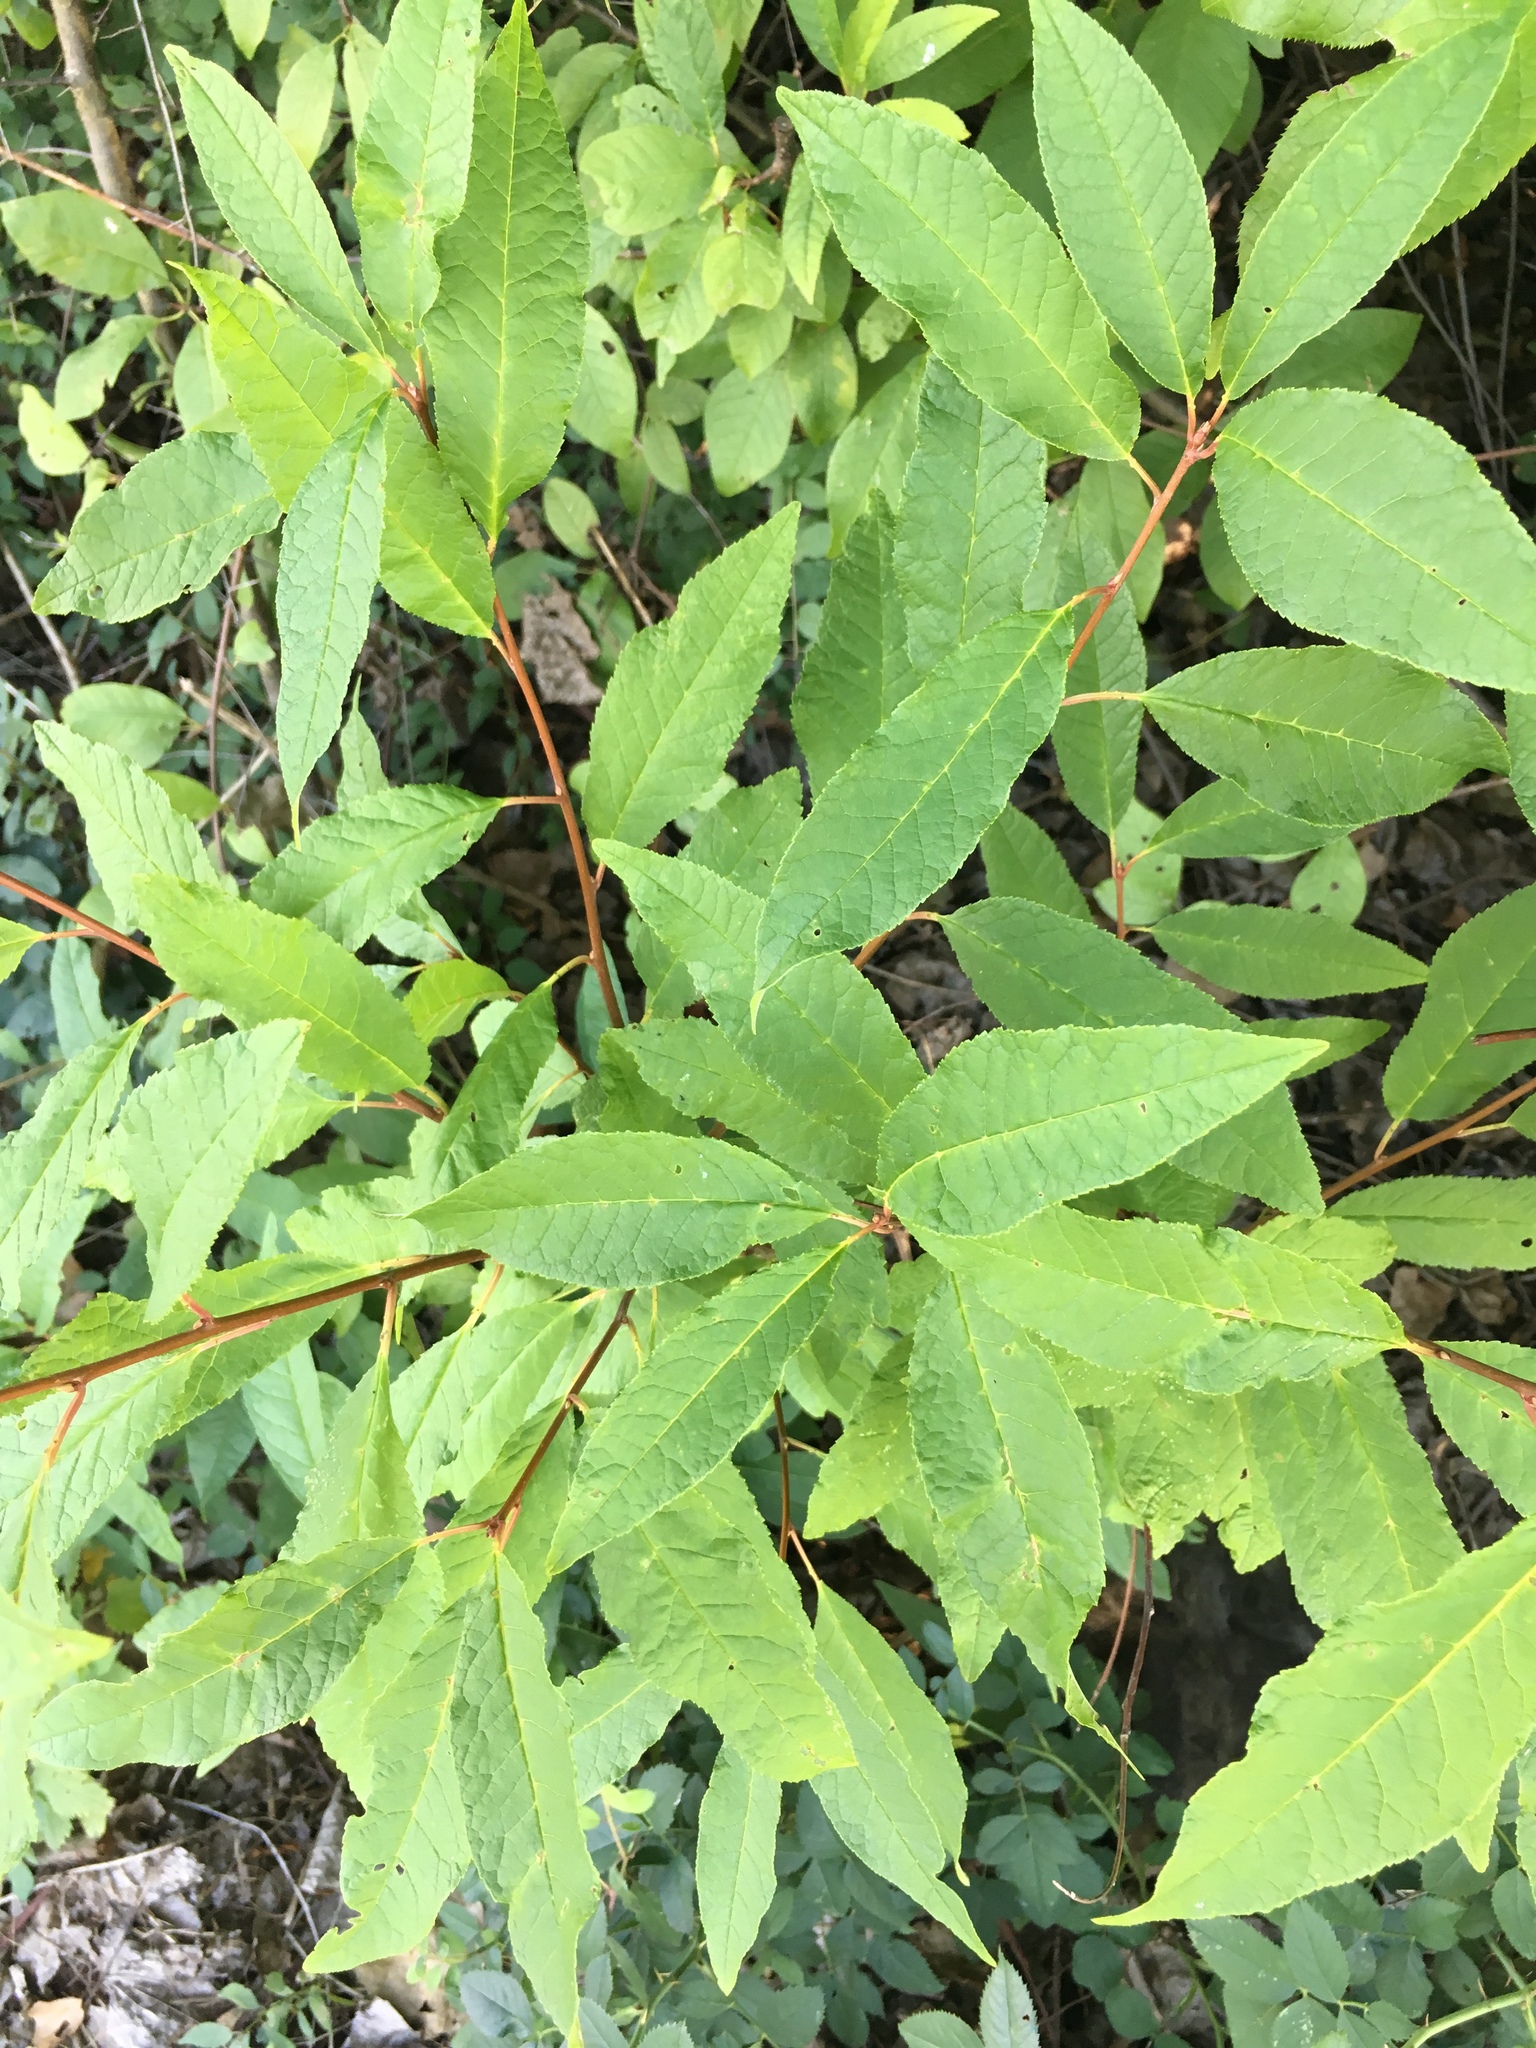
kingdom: Plantae
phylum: Tracheophyta
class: Magnoliopsida
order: Rosales
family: Rosaceae
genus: Prunus
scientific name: Prunus padus
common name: Bird cherry
